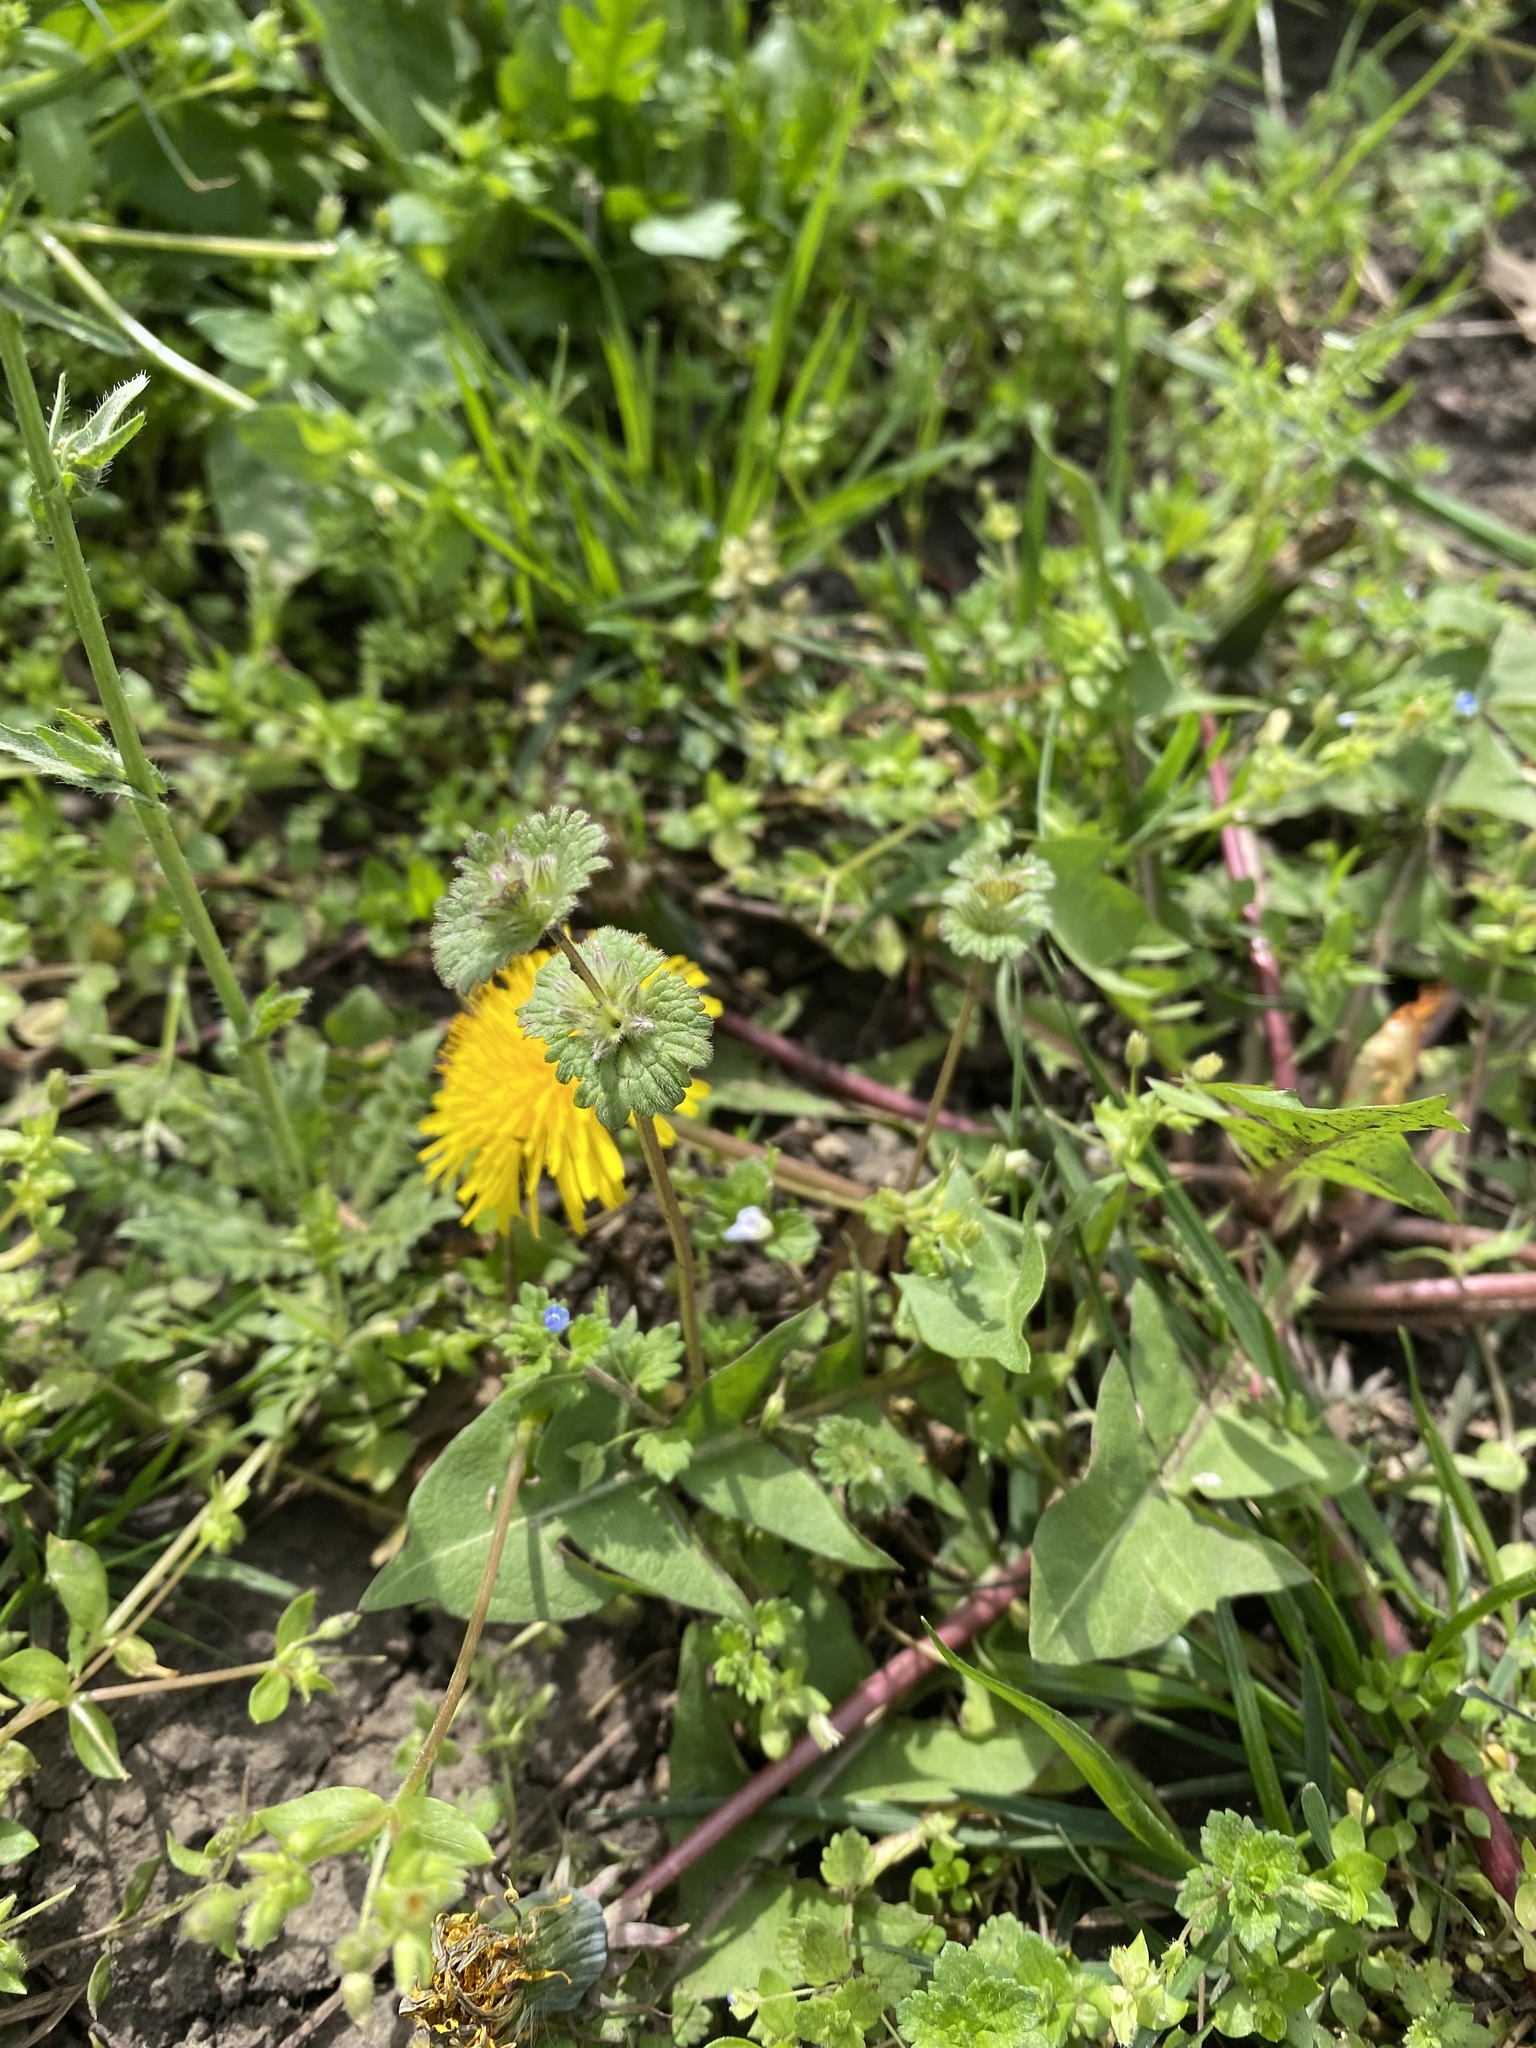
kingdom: Plantae
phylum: Tracheophyta
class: Magnoliopsida
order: Lamiales
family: Lamiaceae
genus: Lamium
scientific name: Lamium amplexicaule
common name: Henbit dead-nettle
